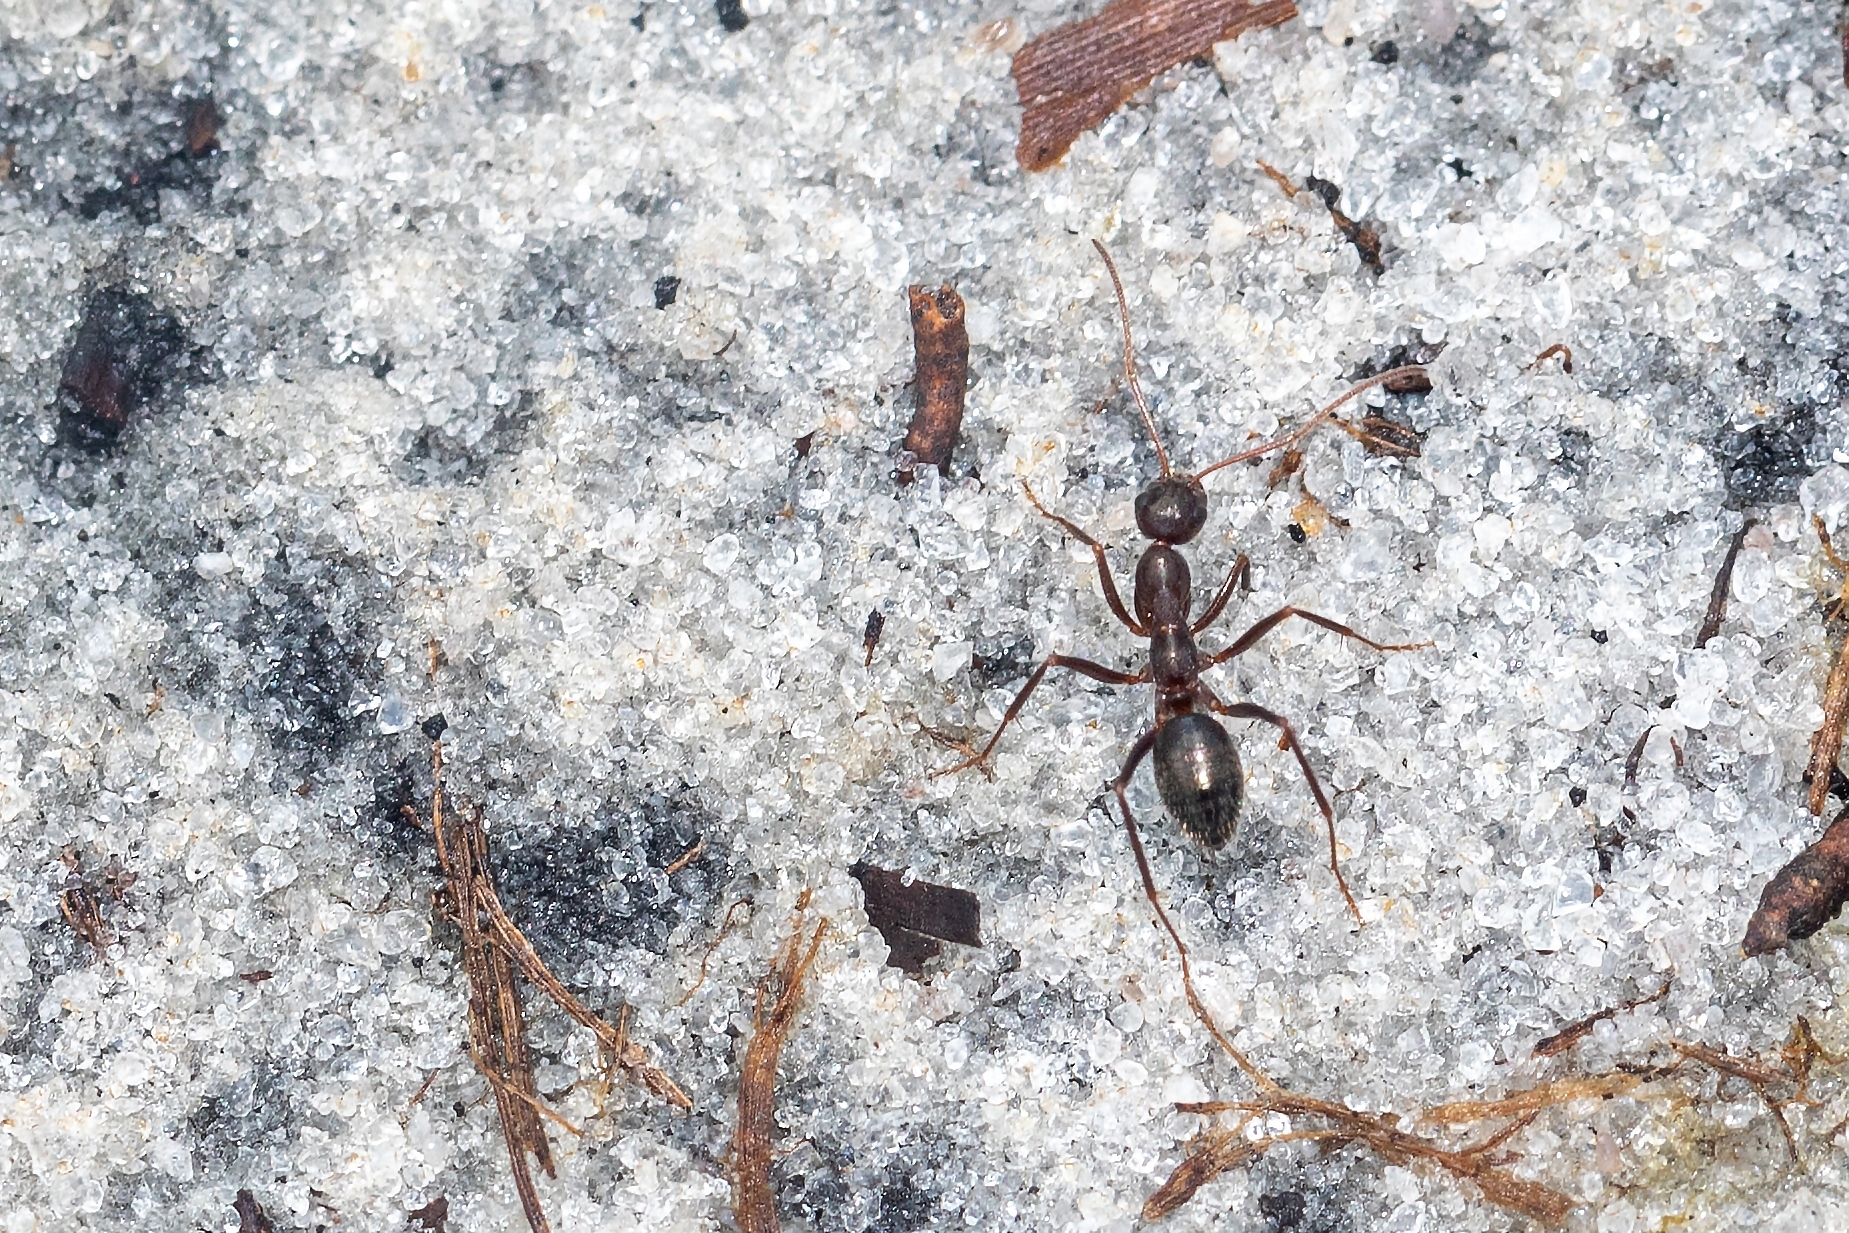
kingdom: Animalia
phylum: Arthropoda
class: Insecta
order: Hymenoptera
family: Formicidae
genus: Formica
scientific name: Formica archboldi
